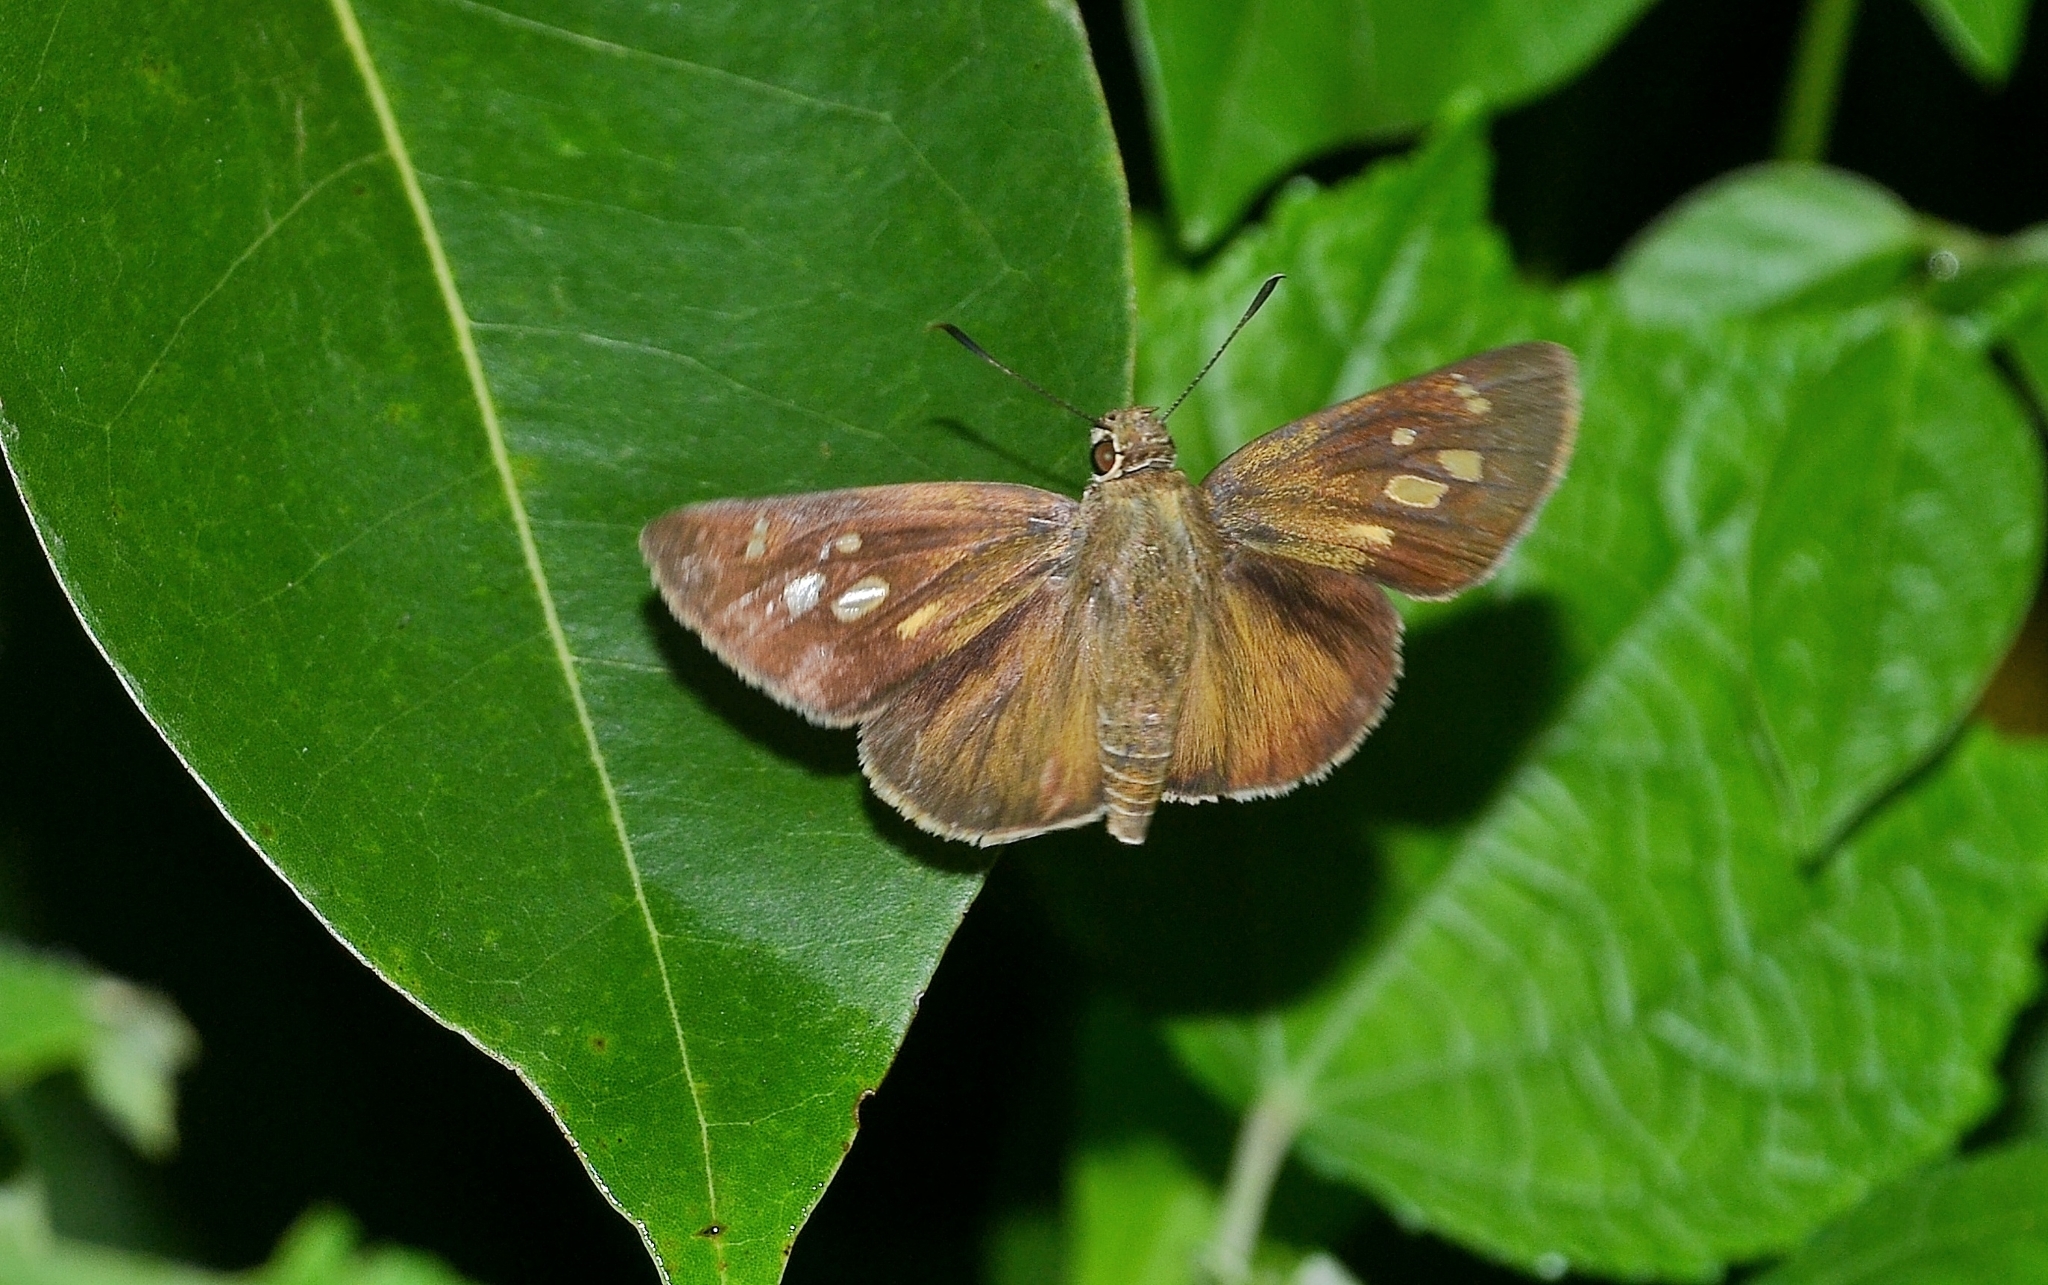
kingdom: Animalia
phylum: Arthropoda
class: Insecta
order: Lepidoptera
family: Hesperiidae
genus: Suastus
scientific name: Suastus gremius
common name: Indian palm bob
